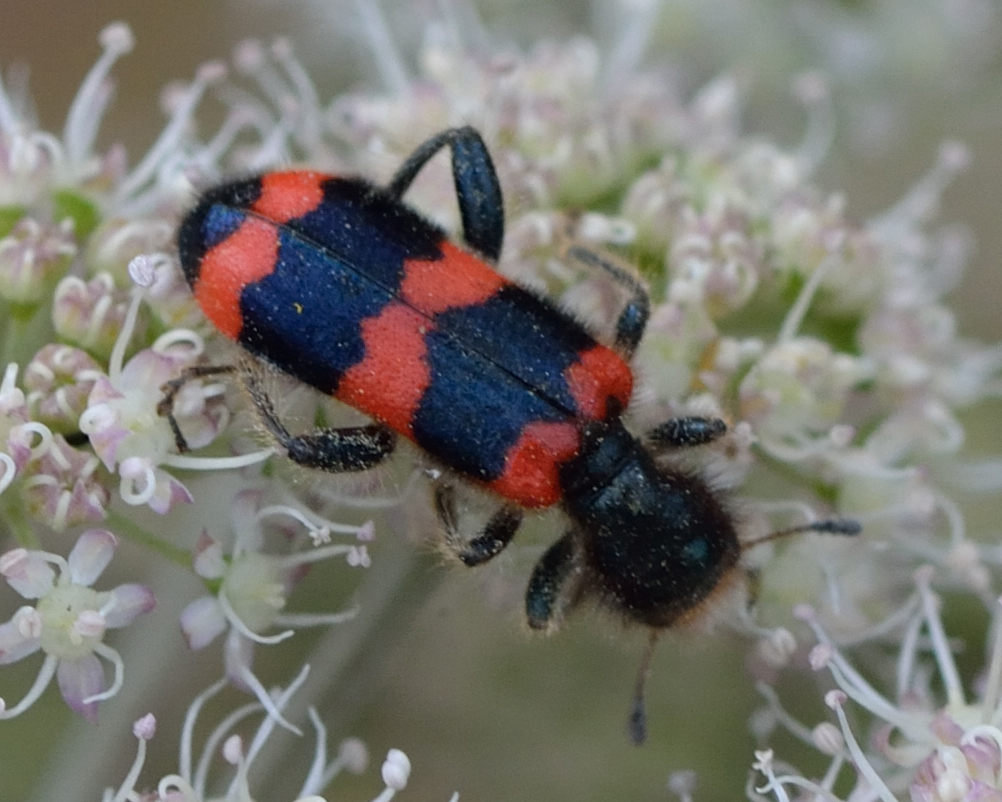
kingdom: Animalia
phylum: Arthropoda
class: Insecta
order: Coleoptera
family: Cleridae
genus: Trichodes
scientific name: Trichodes apiarius
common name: Bee-eating beetle
